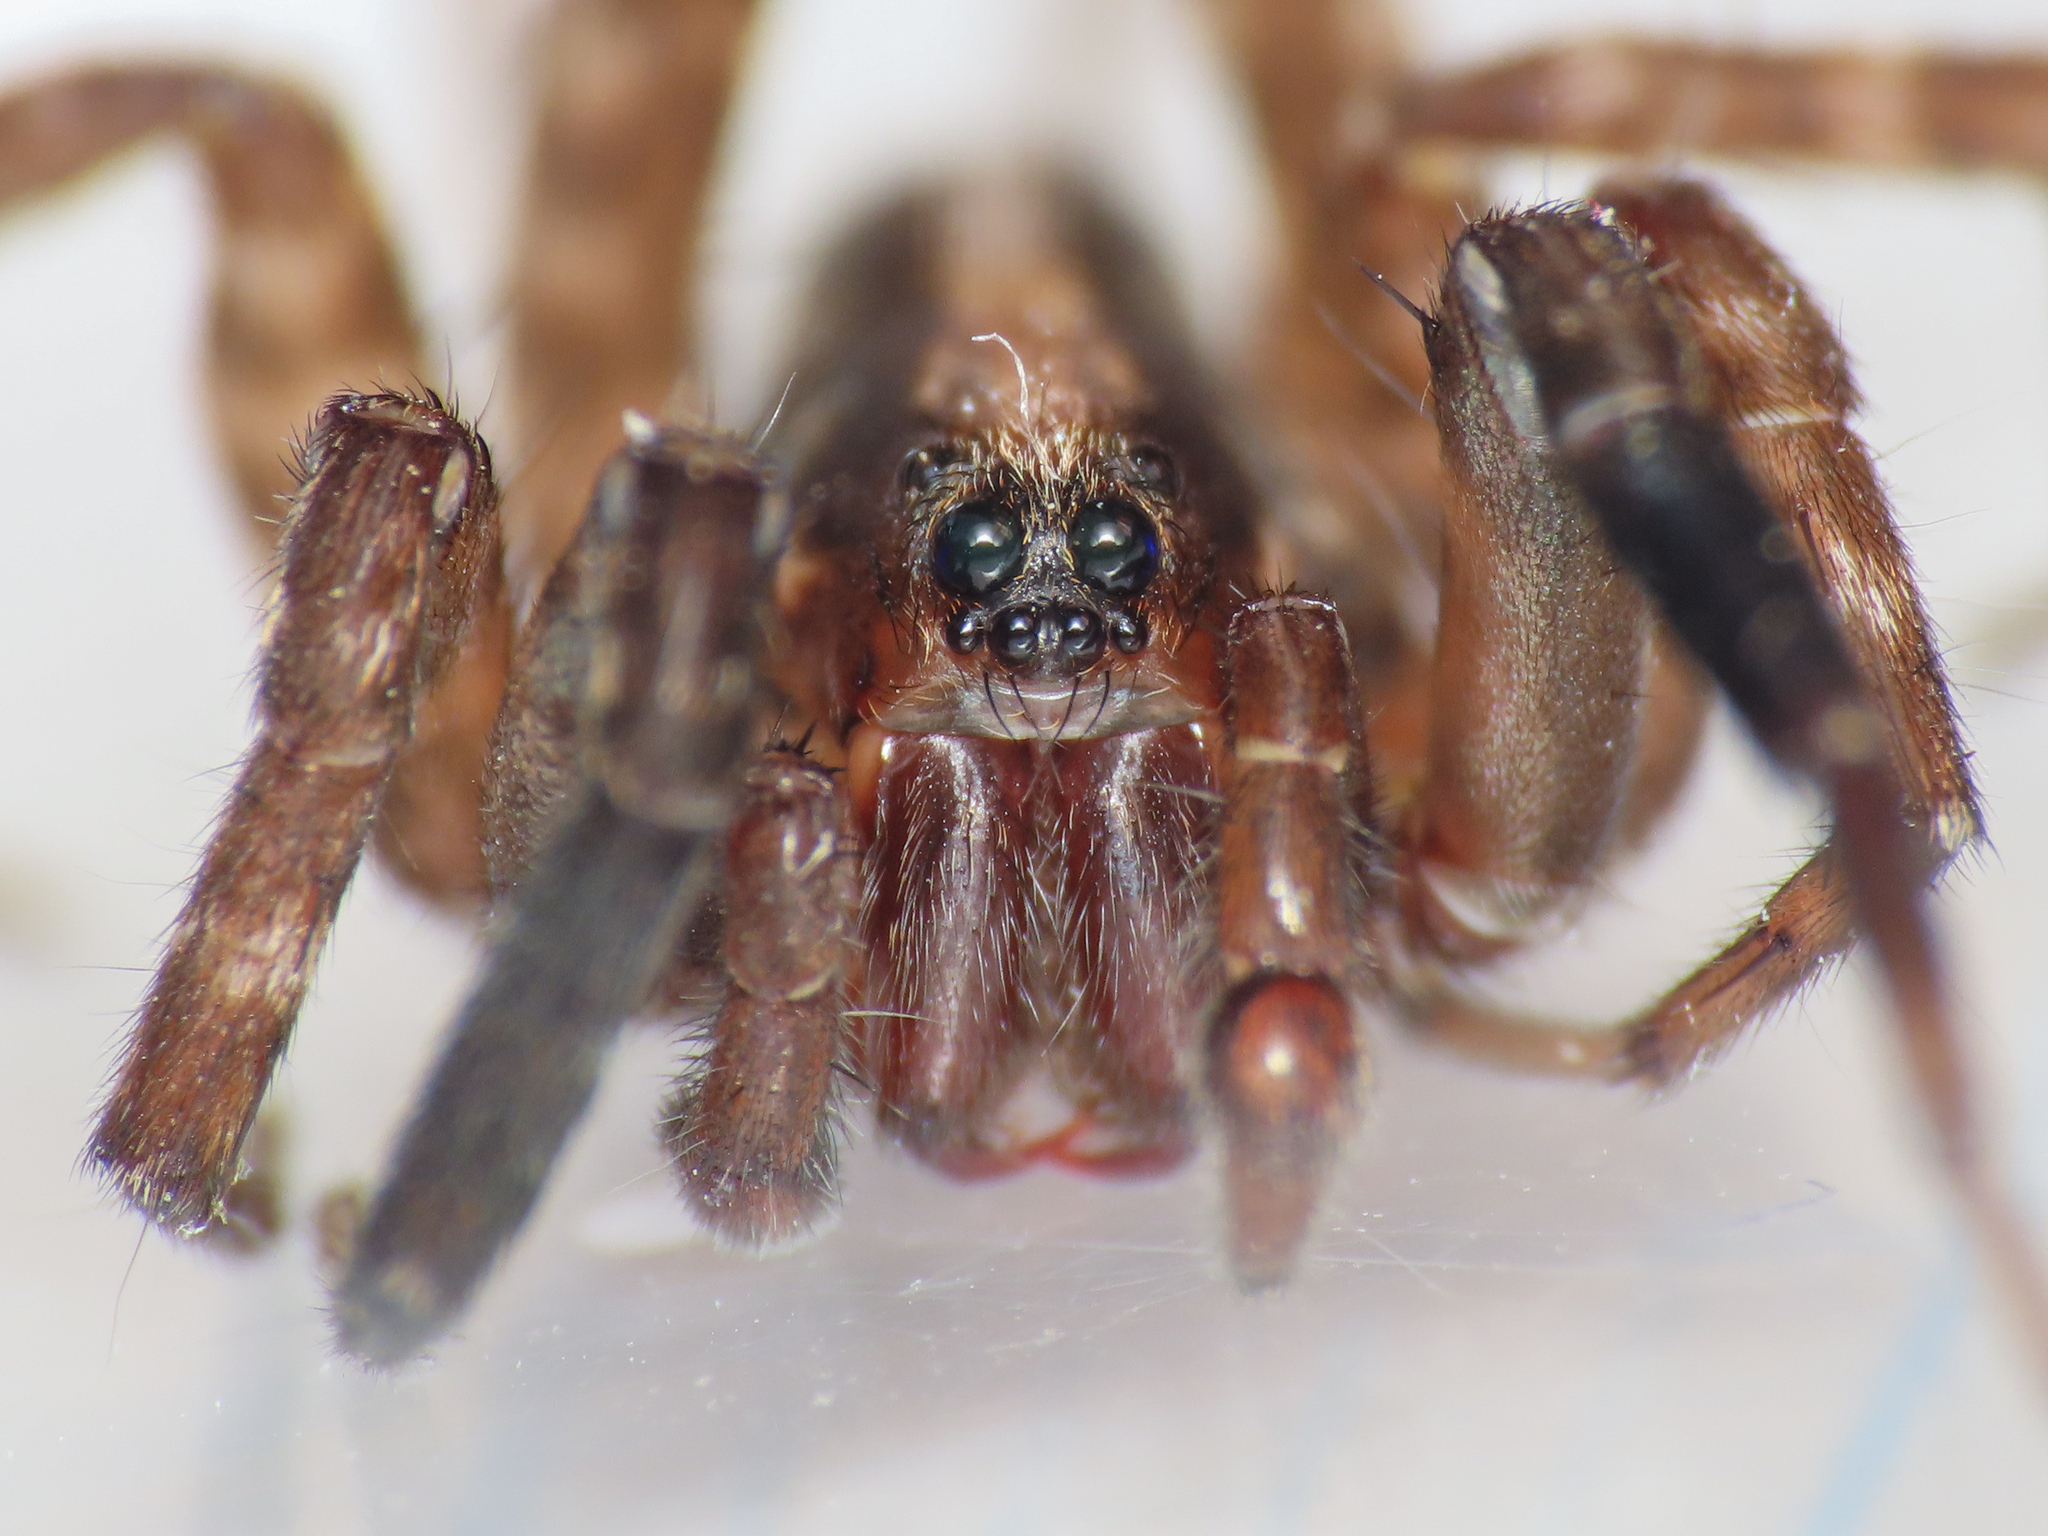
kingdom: Animalia
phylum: Arthropoda
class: Arachnida
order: Araneae
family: Lycosidae
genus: Trochosa
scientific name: Trochosa hispanica
